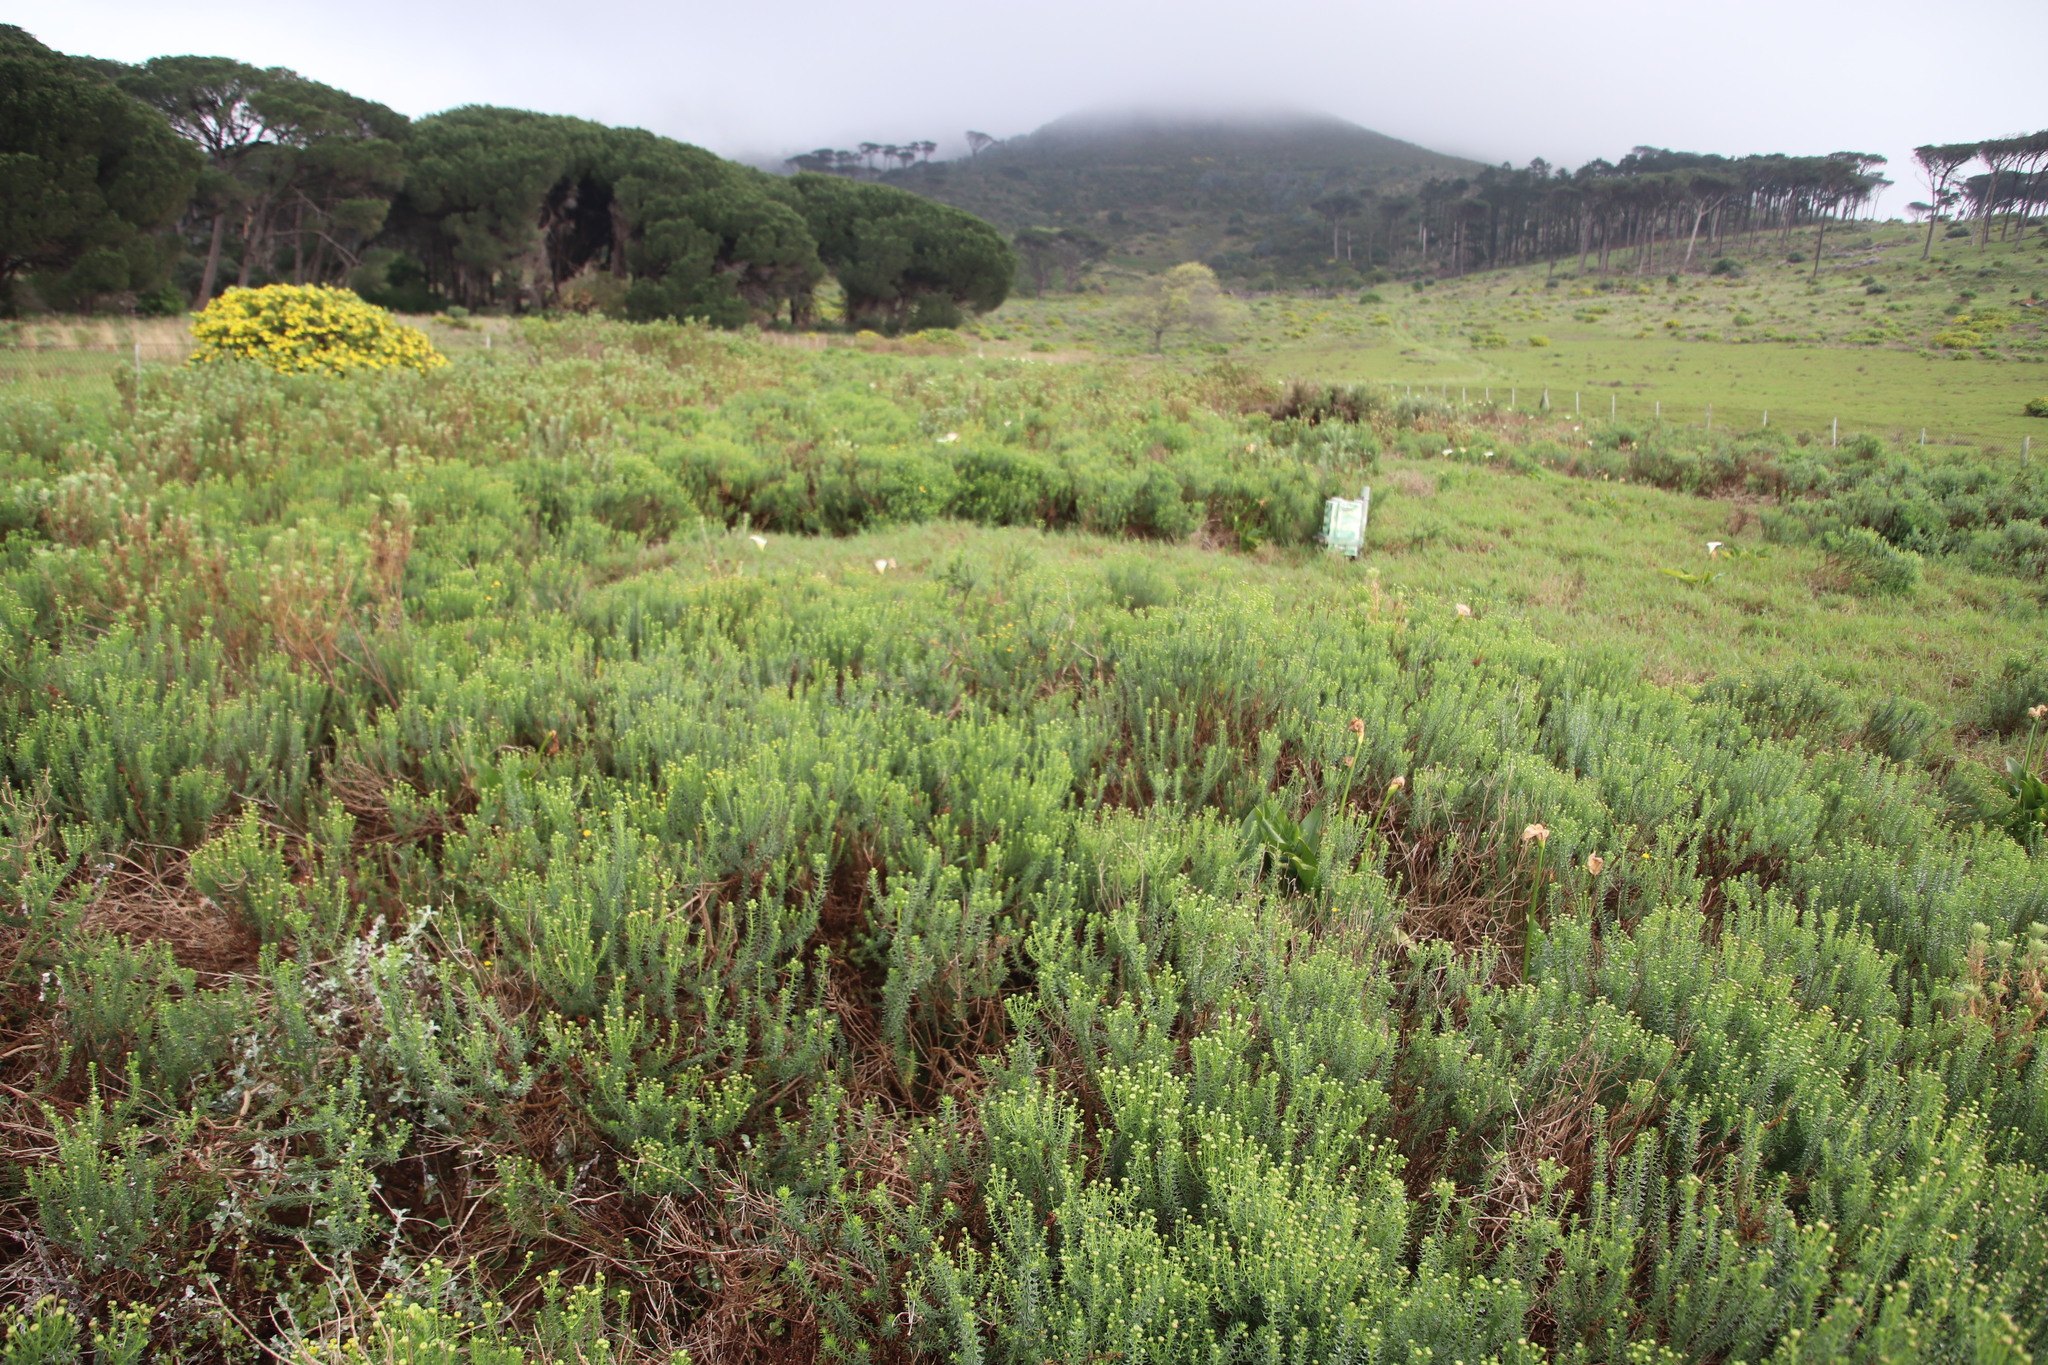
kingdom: Plantae
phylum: Tracheophyta
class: Magnoliopsida
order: Asterales
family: Asteraceae
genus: Chrysocoma
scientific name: Chrysocoma cernua
